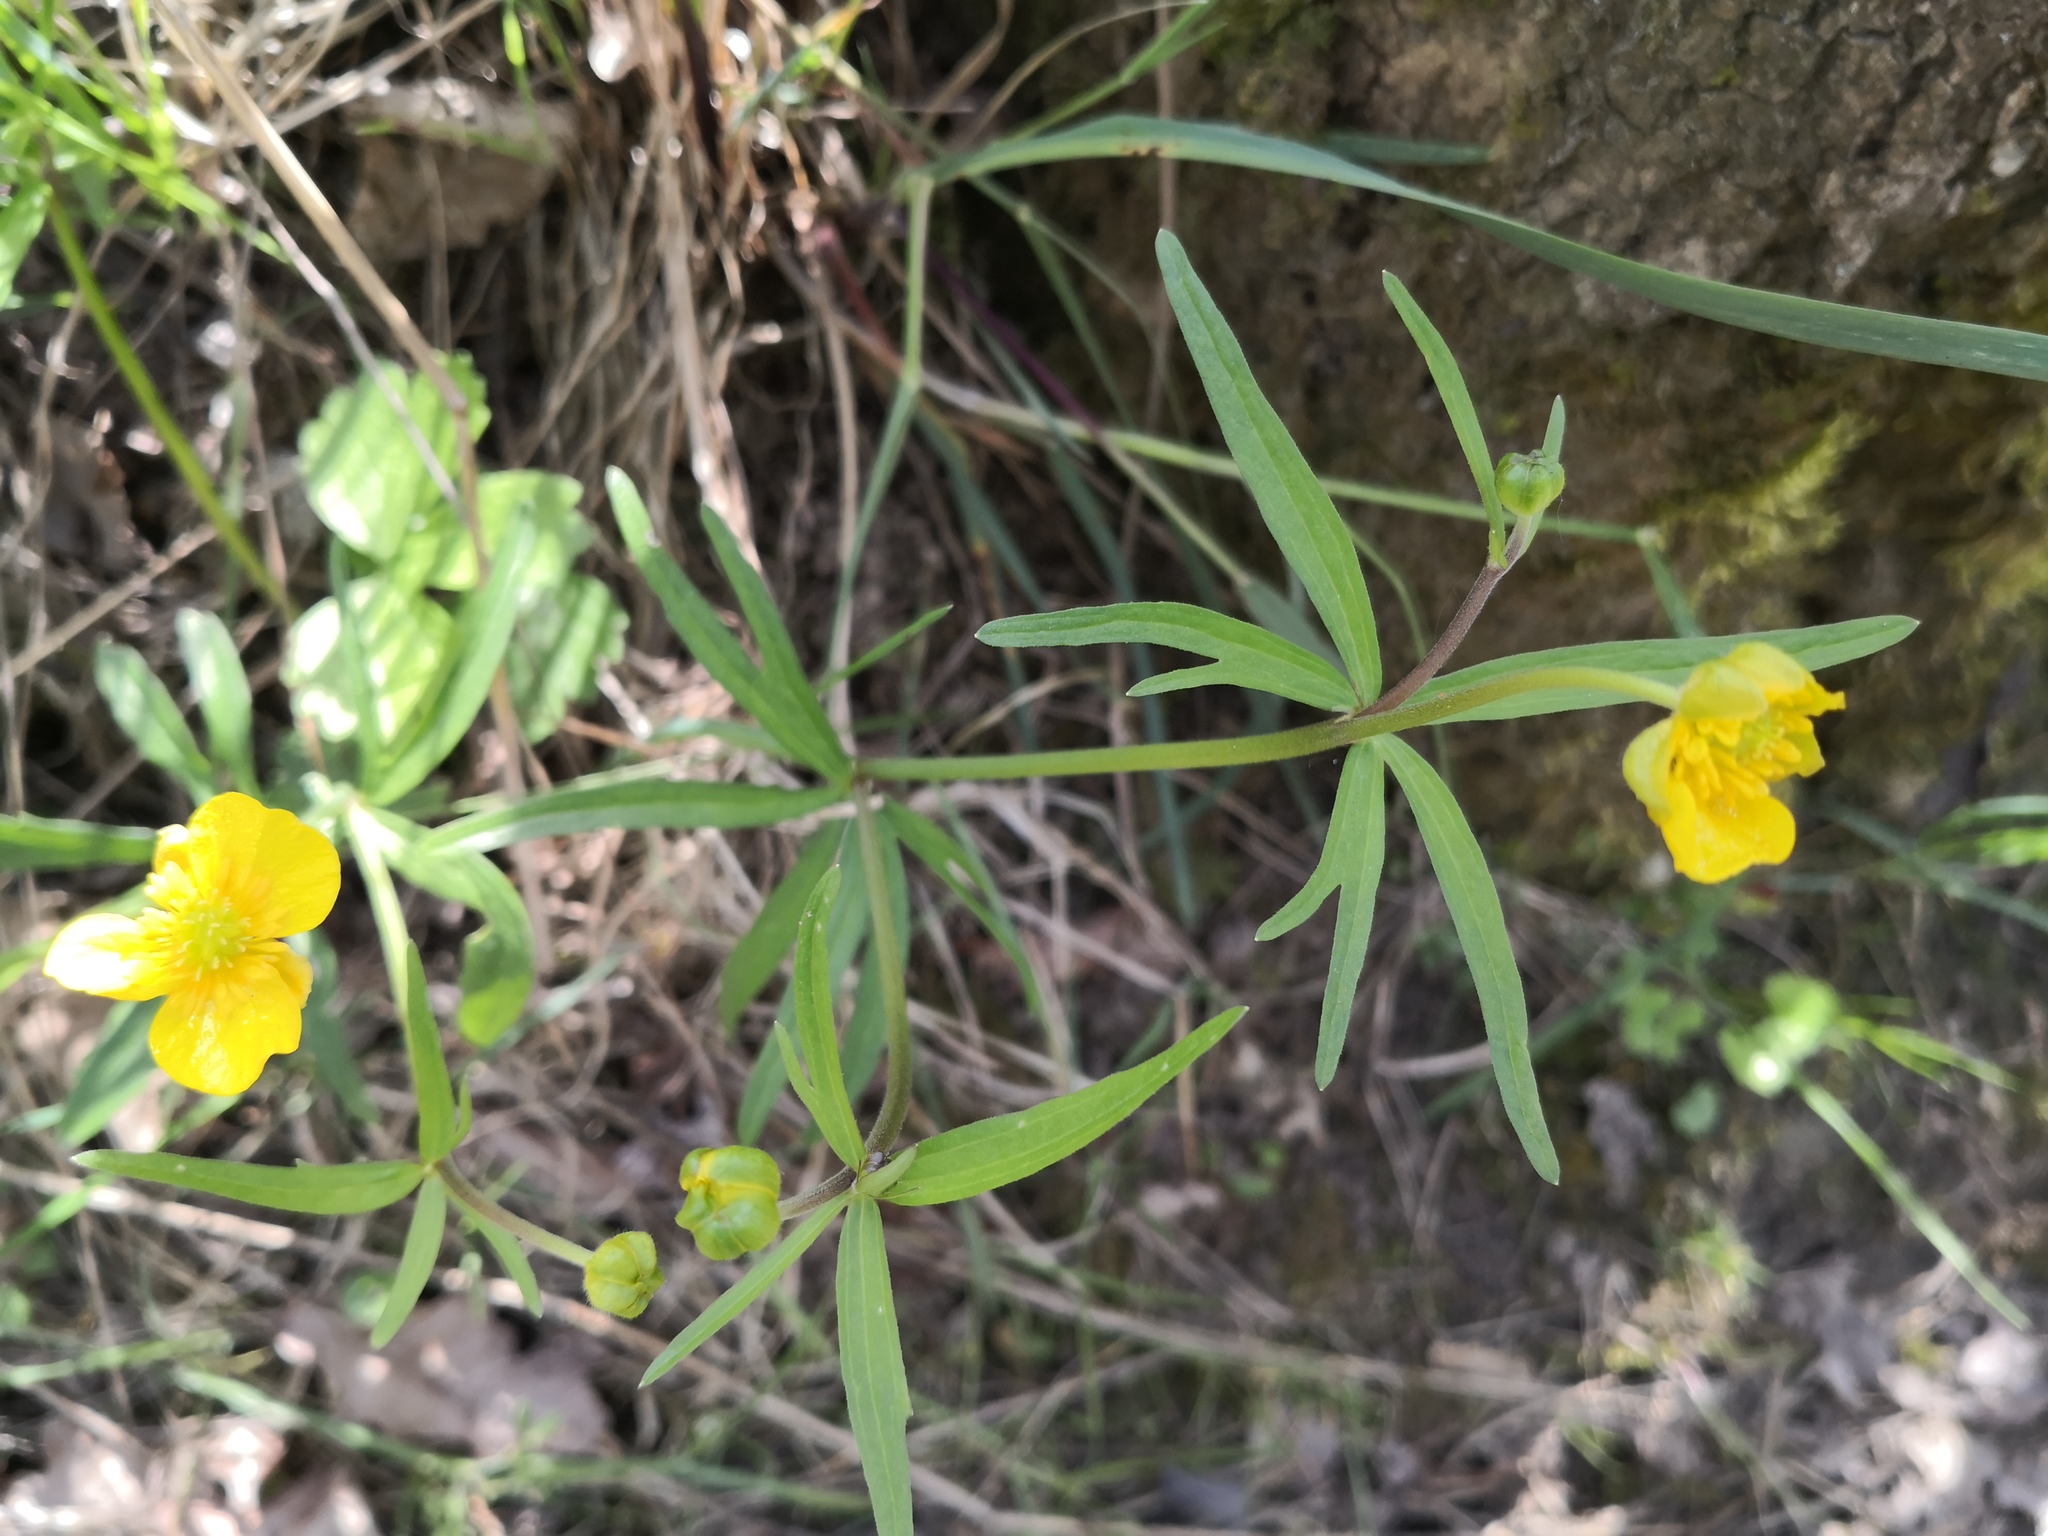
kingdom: Plantae
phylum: Tracheophyta
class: Magnoliopsida
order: Ranunculales
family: Ranunculaceae
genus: Ranunculus
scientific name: Ranunculus auricomus
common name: Goldilocks buttercup
